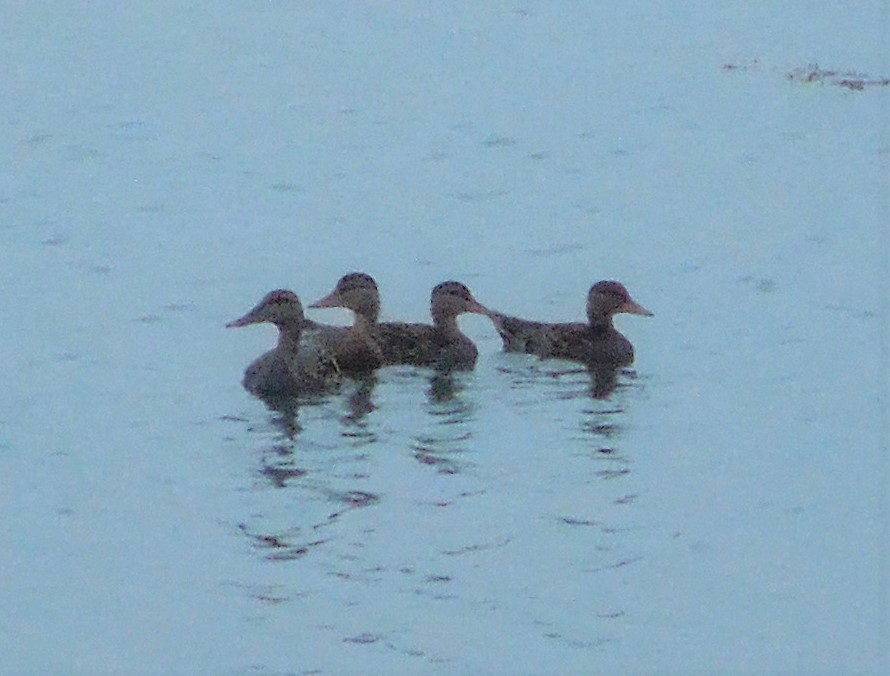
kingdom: Animalia
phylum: Chordata
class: Aves
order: Anseriformes
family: Anatidae
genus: Anas
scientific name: Anas platyrhynchos
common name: Mallard
